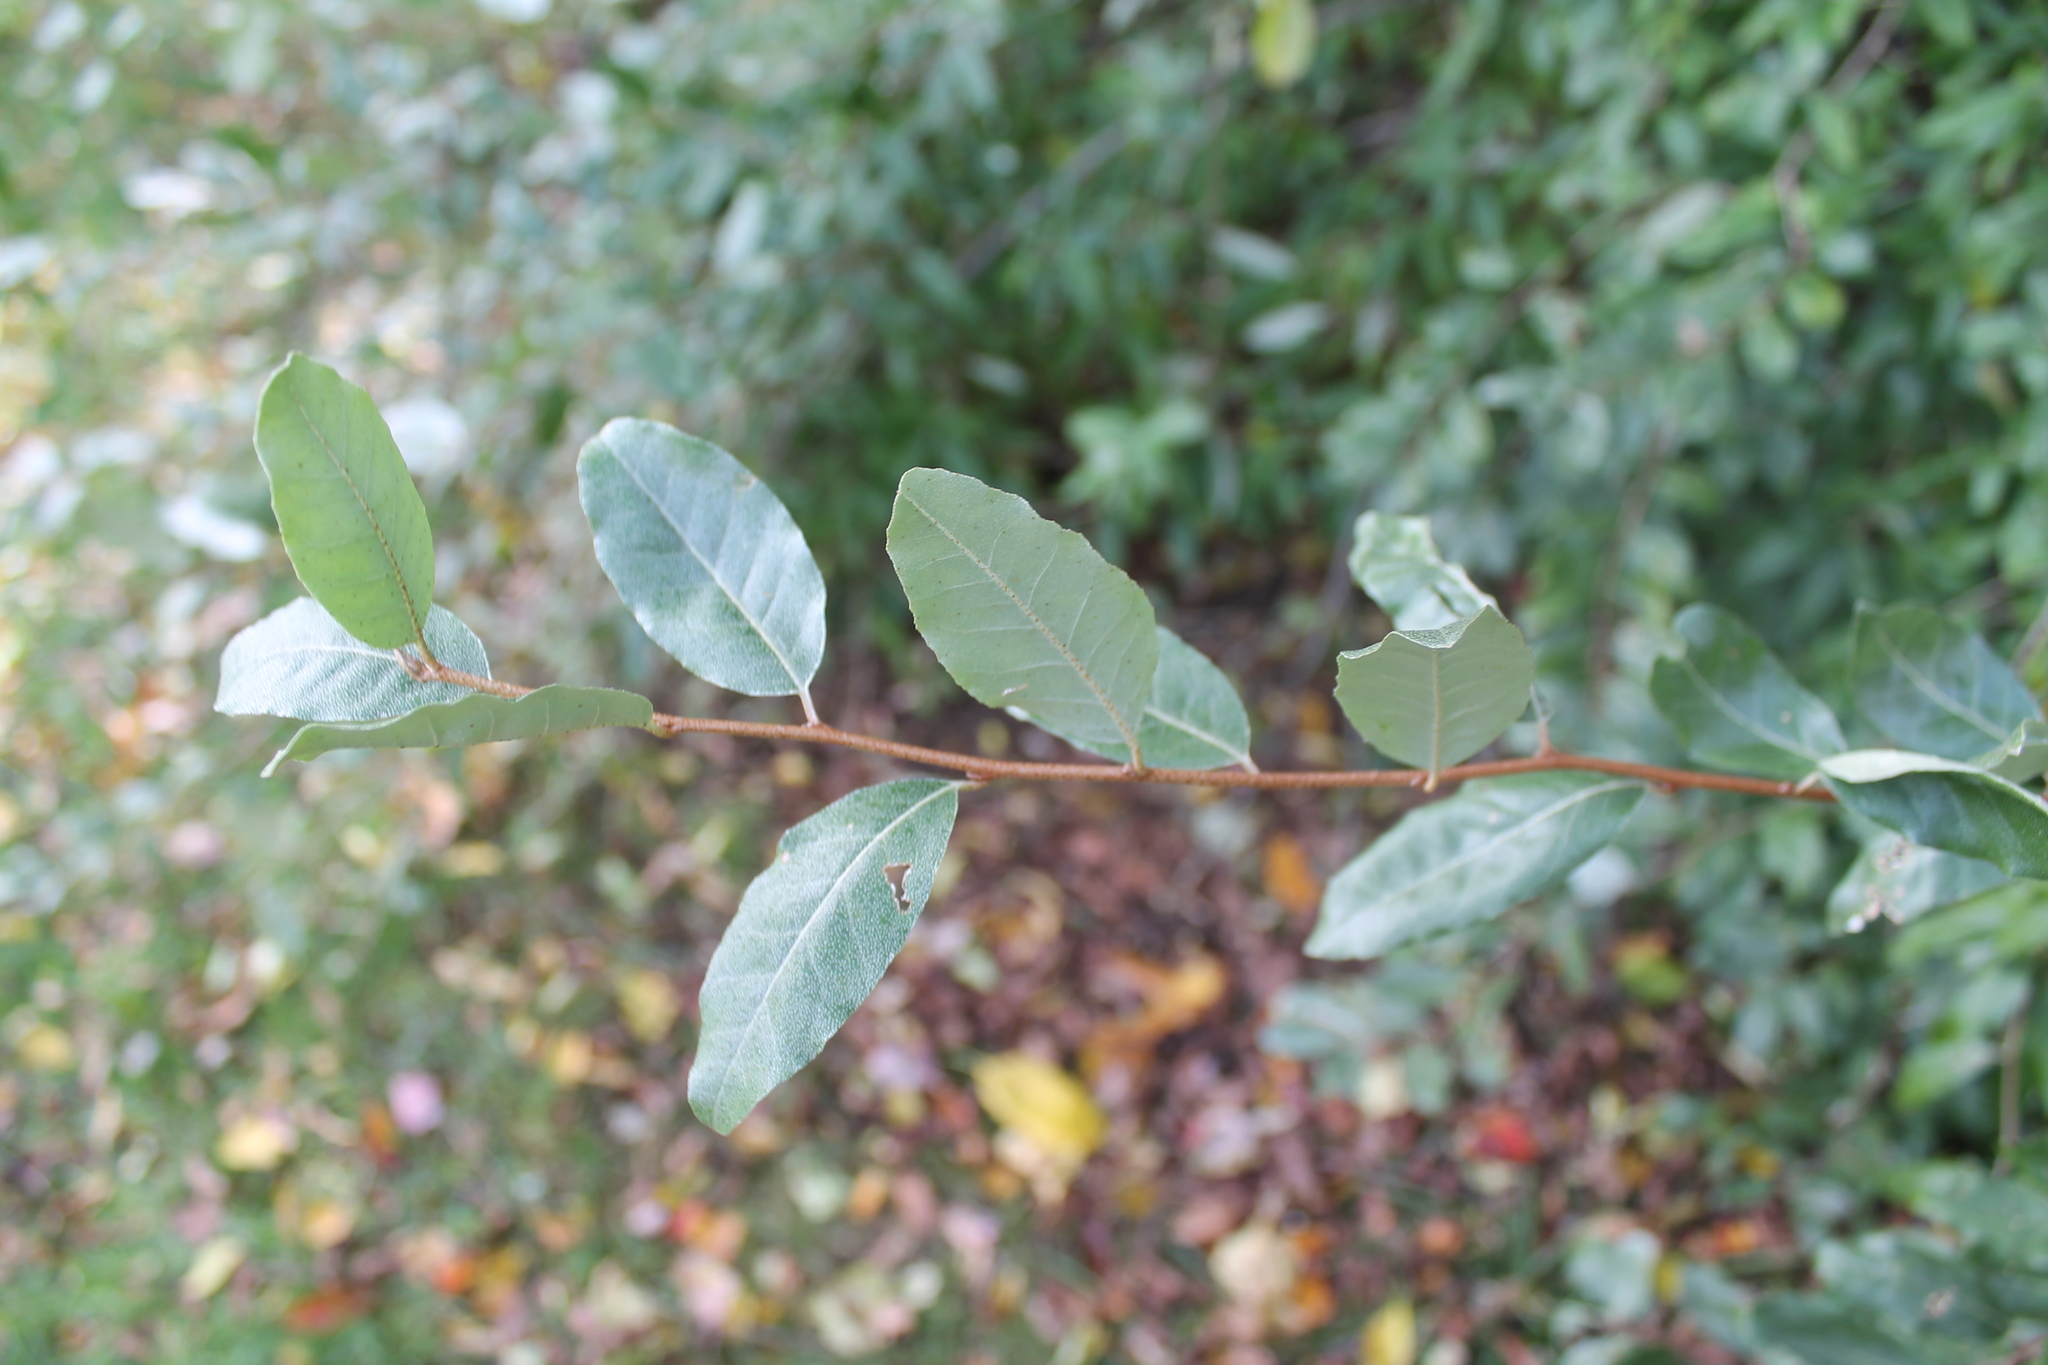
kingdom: Plantae
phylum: Tracheophyta
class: Magnoliopsida
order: Rosales
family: Elaeagnaceae
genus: Elaeagnus
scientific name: Elaeagnus umbellata
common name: Autumn olive
